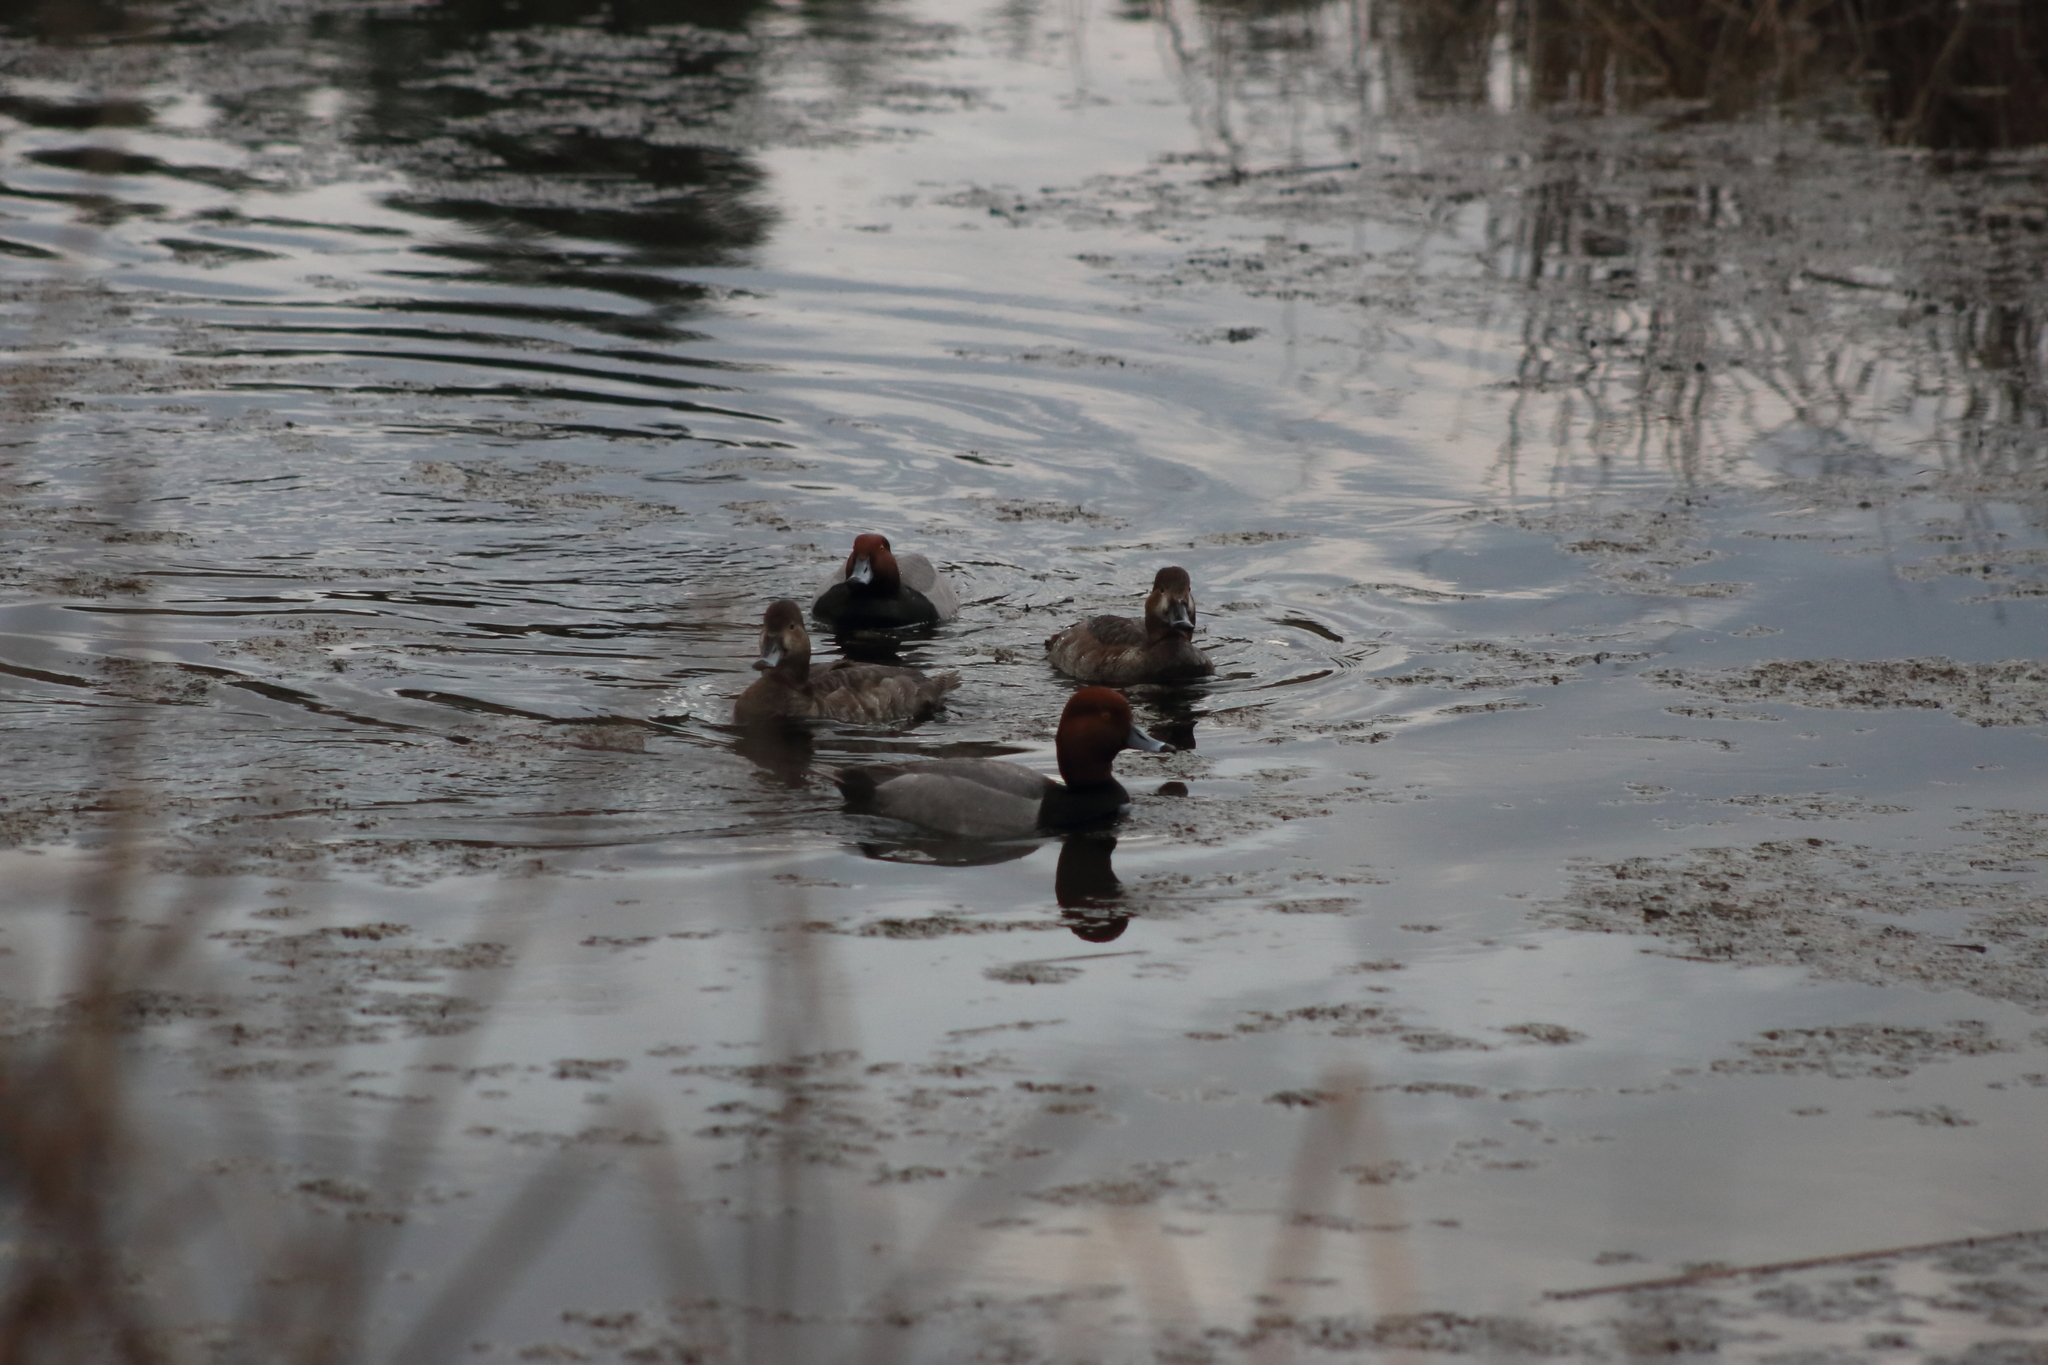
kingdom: Animalia
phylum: Chordata
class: Aves
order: Anseriformes
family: Anatidae
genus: Aythya
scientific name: Aythya americana
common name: Redhead
